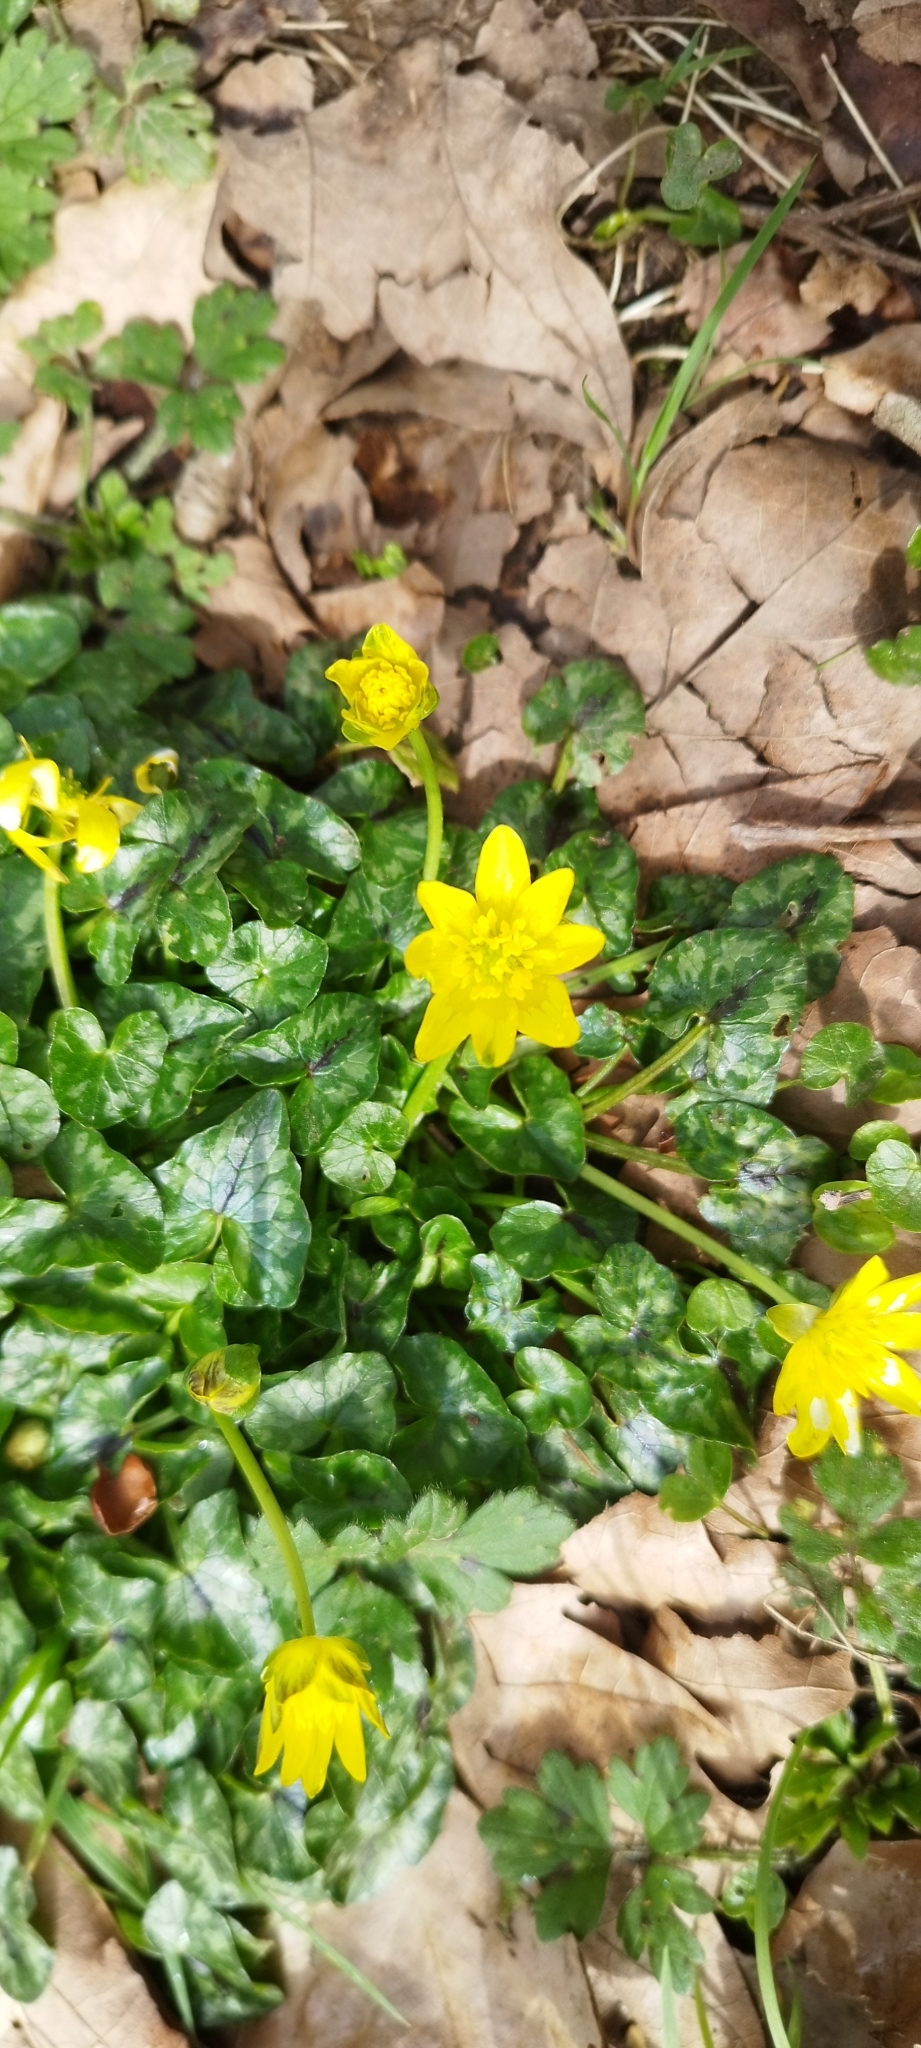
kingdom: Plantae
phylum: Tracheophyta
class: Magnoliopsida
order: Ranunculales
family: Ranunculaceae
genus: Ficaria
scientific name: Ficaria verna
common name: Lesser celandine
